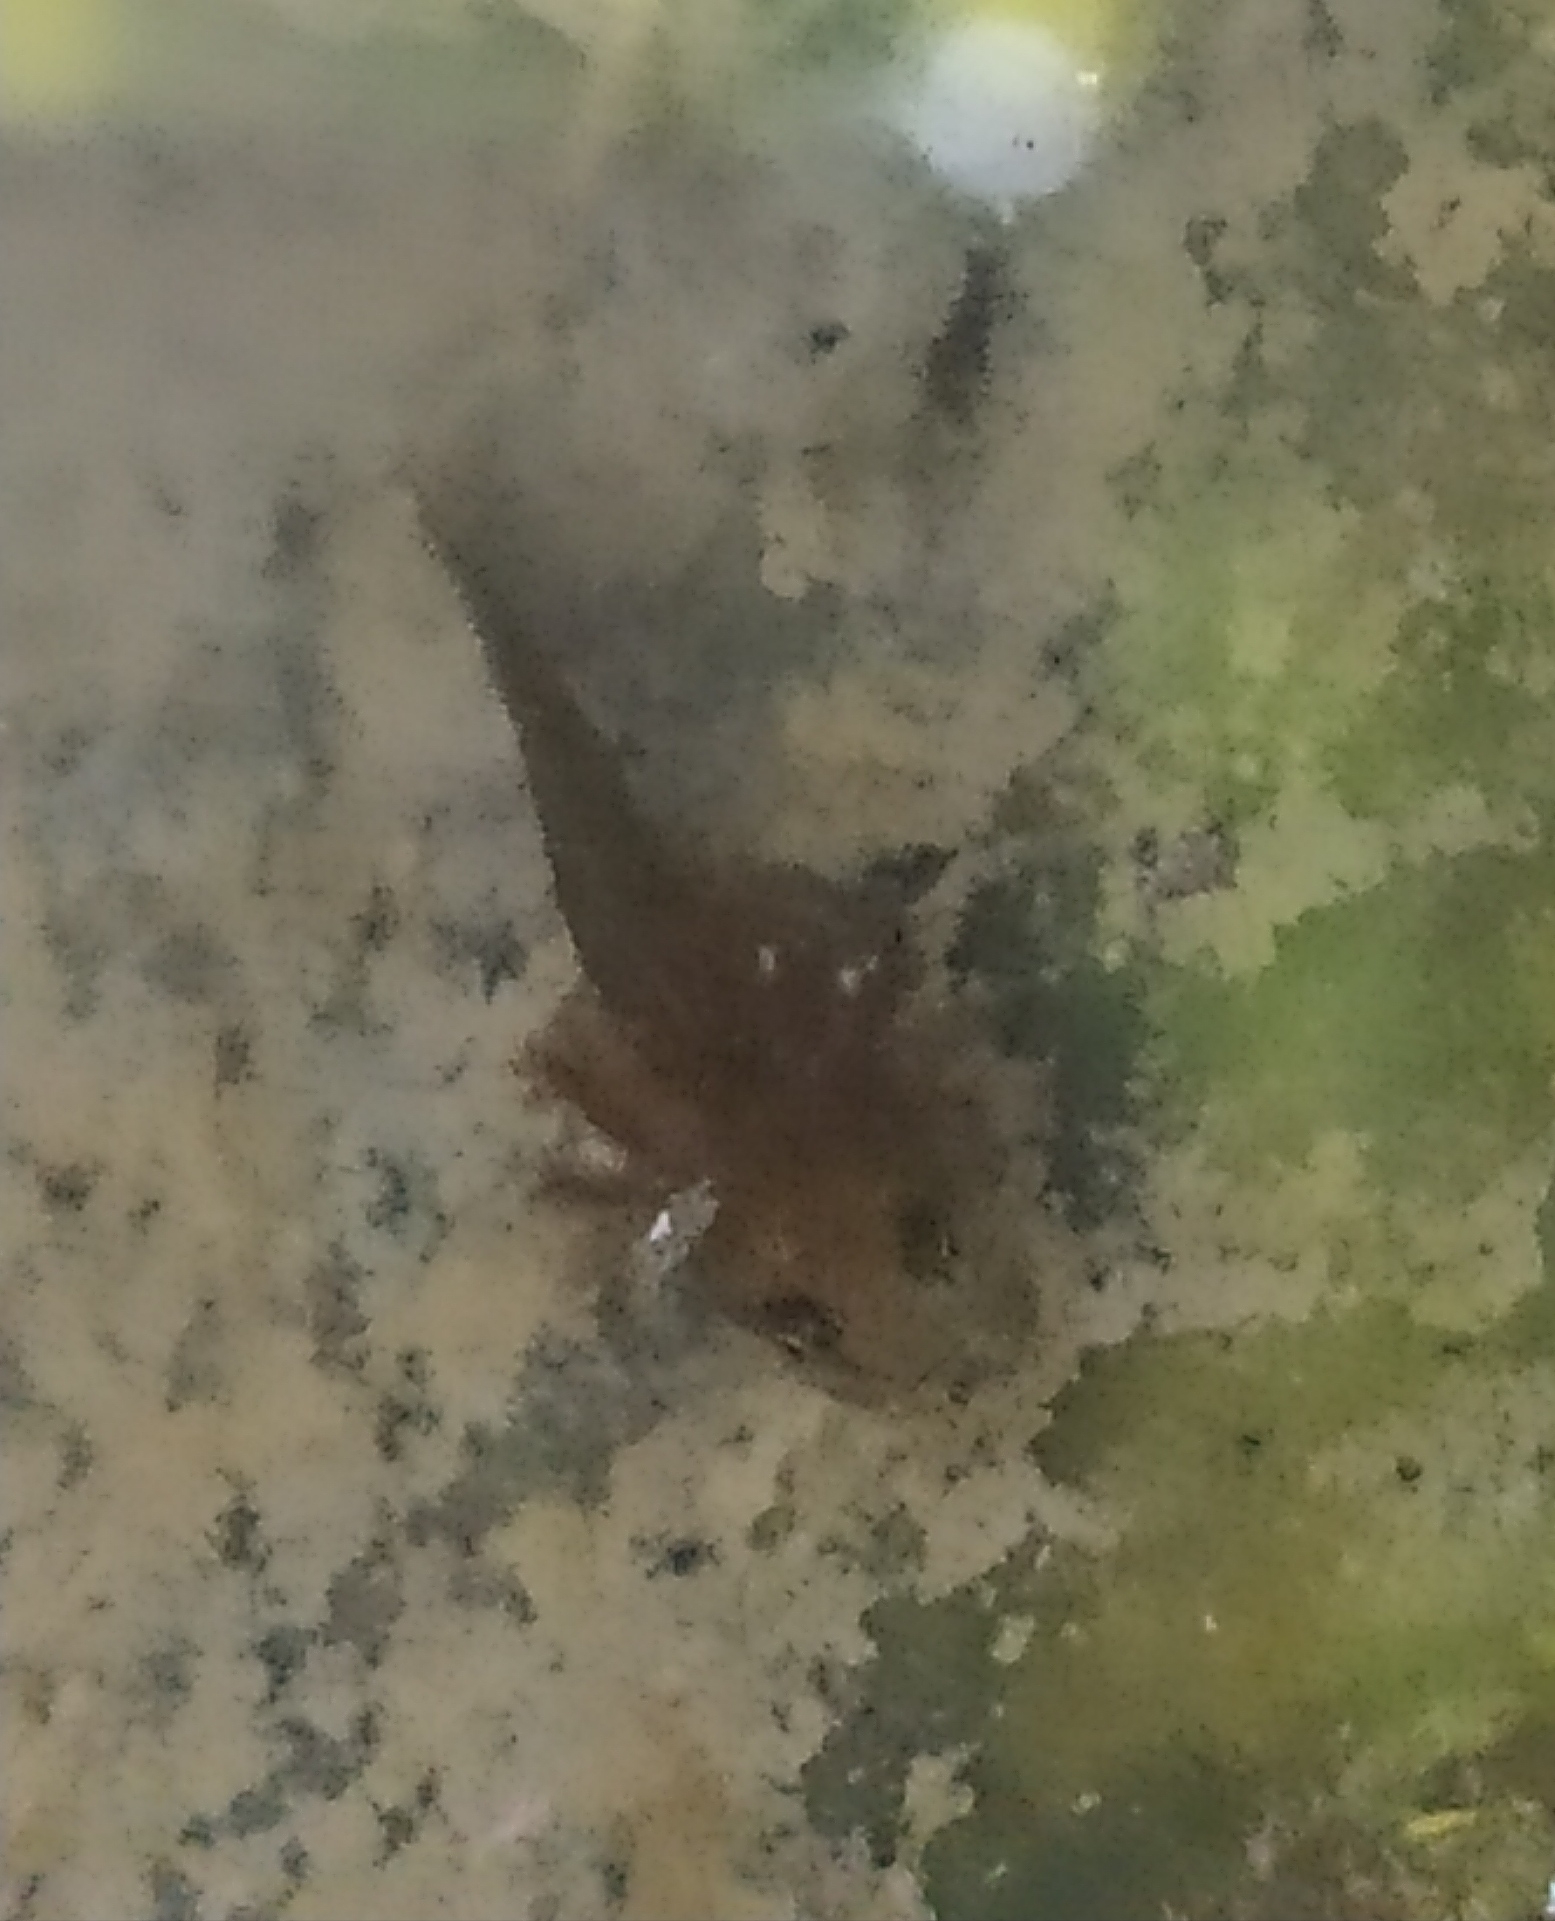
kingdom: Animalia
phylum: Chordata
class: Amphibia
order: Caudata
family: Salamandridae
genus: Lissotriton
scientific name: Lissotriton italicus
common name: Italian newt
